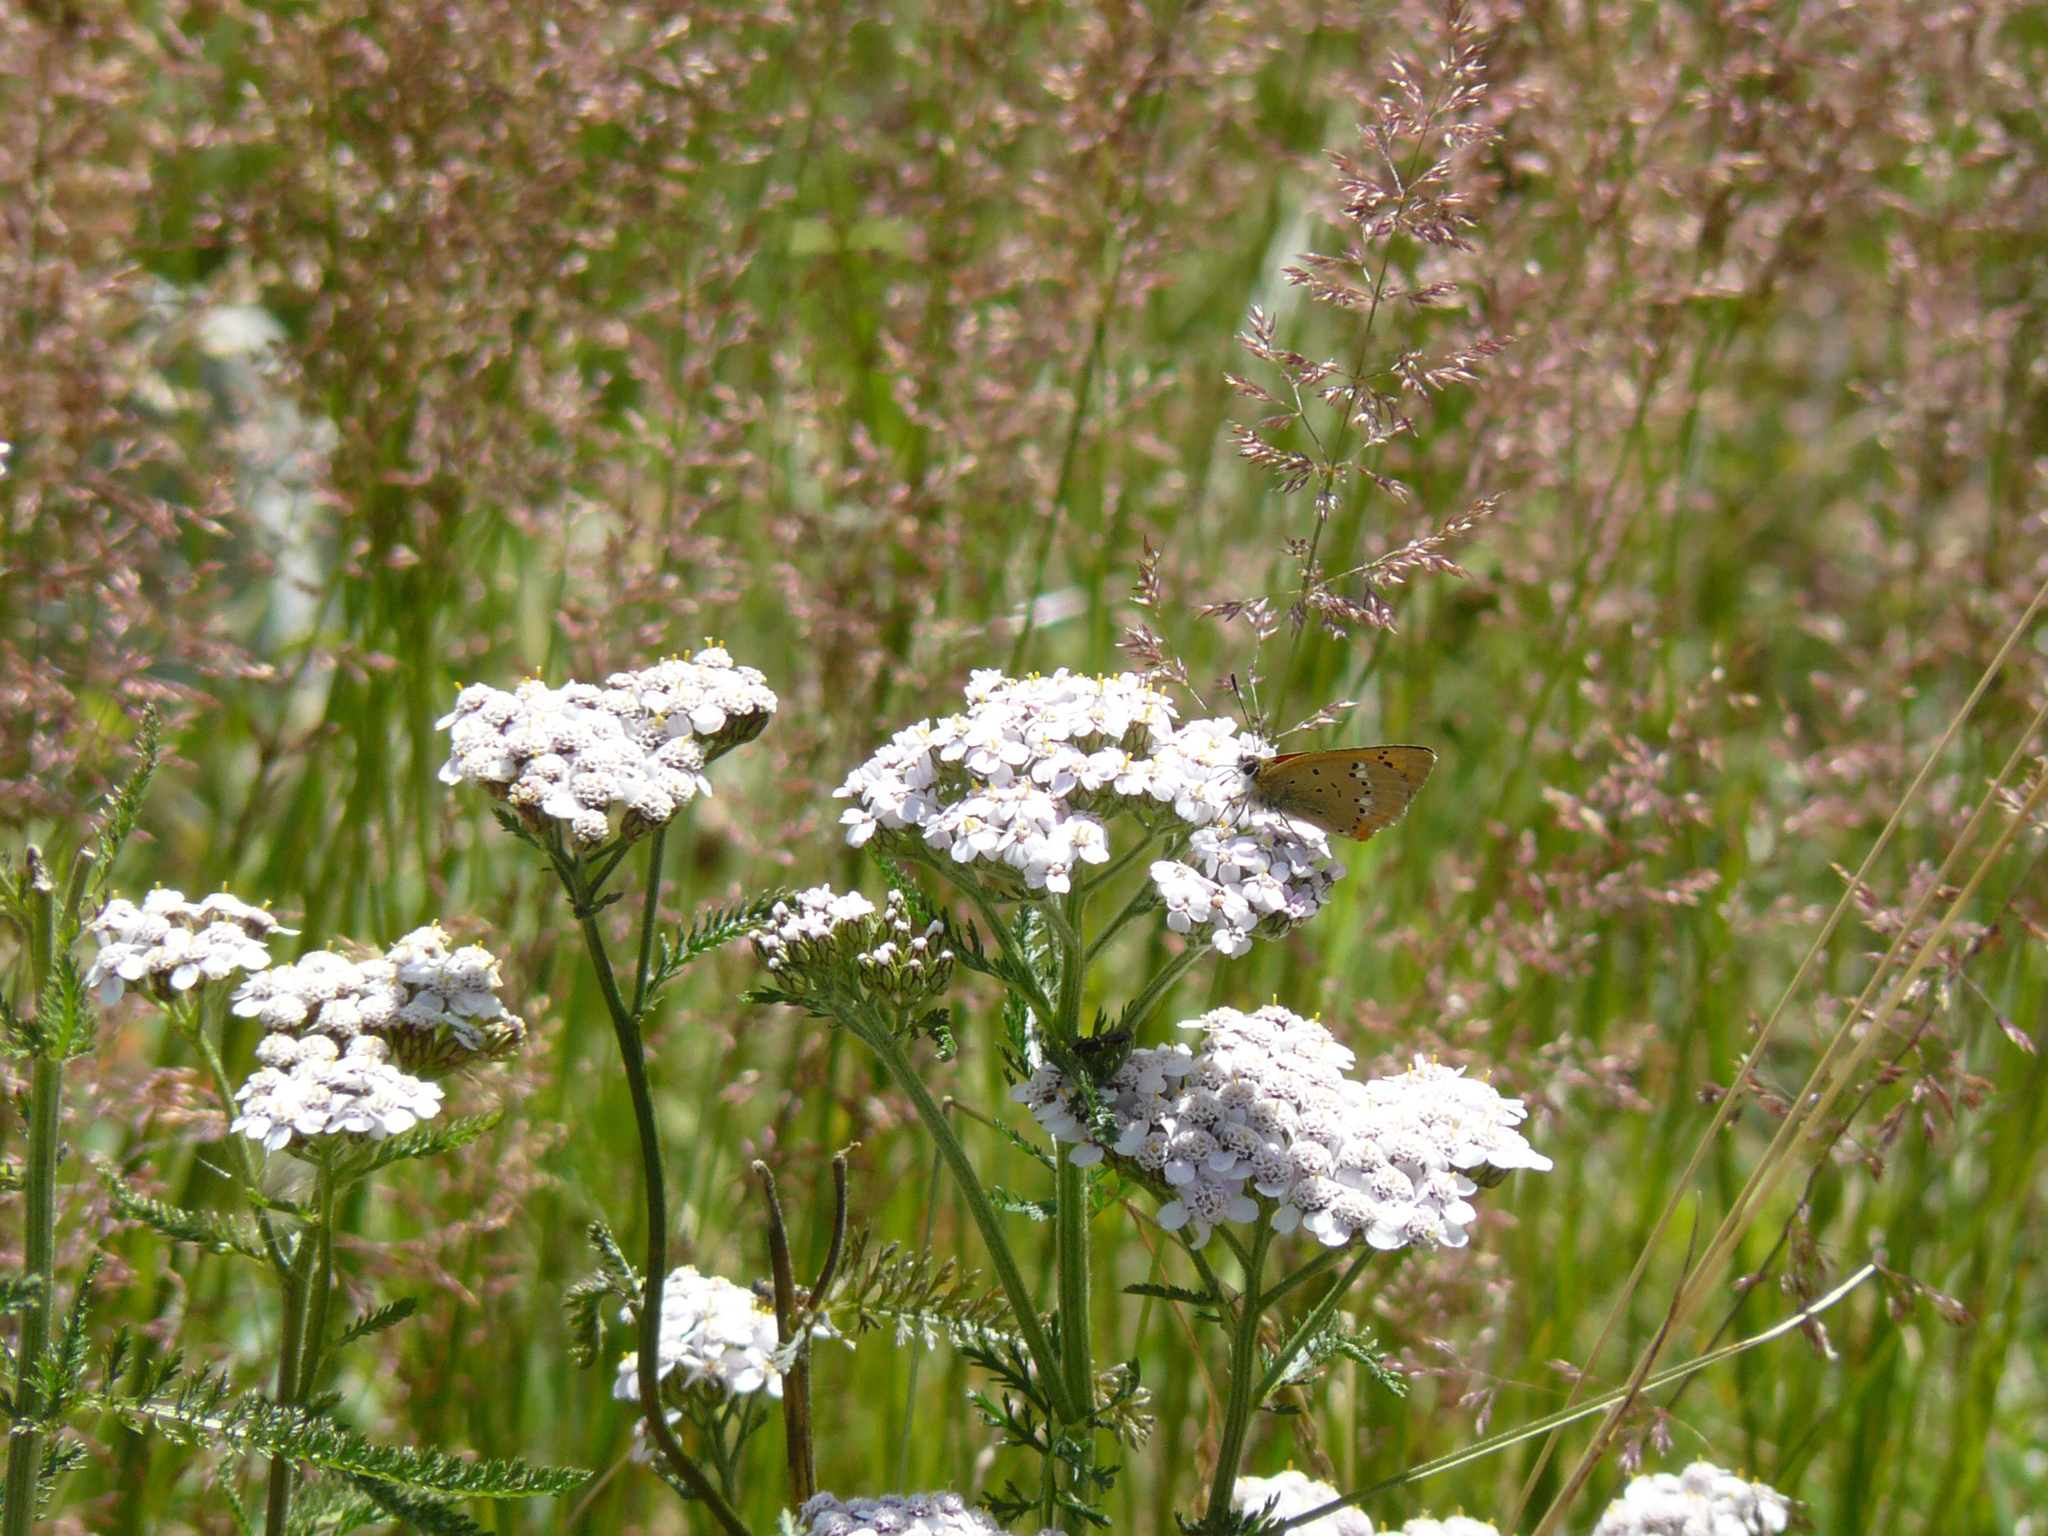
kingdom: Animalia
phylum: Arthropoda
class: Insecta
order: Lepidoptera
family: Lycaenidae
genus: Lycaena
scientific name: Lycaena virgaureae
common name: Scarce copper
